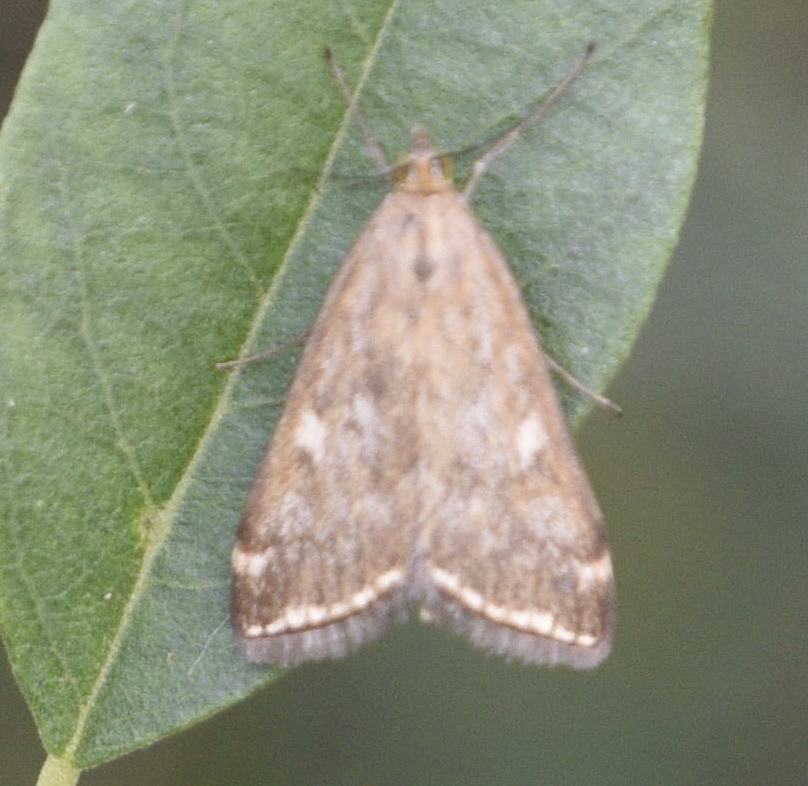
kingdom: Animalia
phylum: Arthropoda
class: Insecta
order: Lepidoptera
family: Crambidae
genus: Loxostege
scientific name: Loxostege sticticalis
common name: Crambid moth
